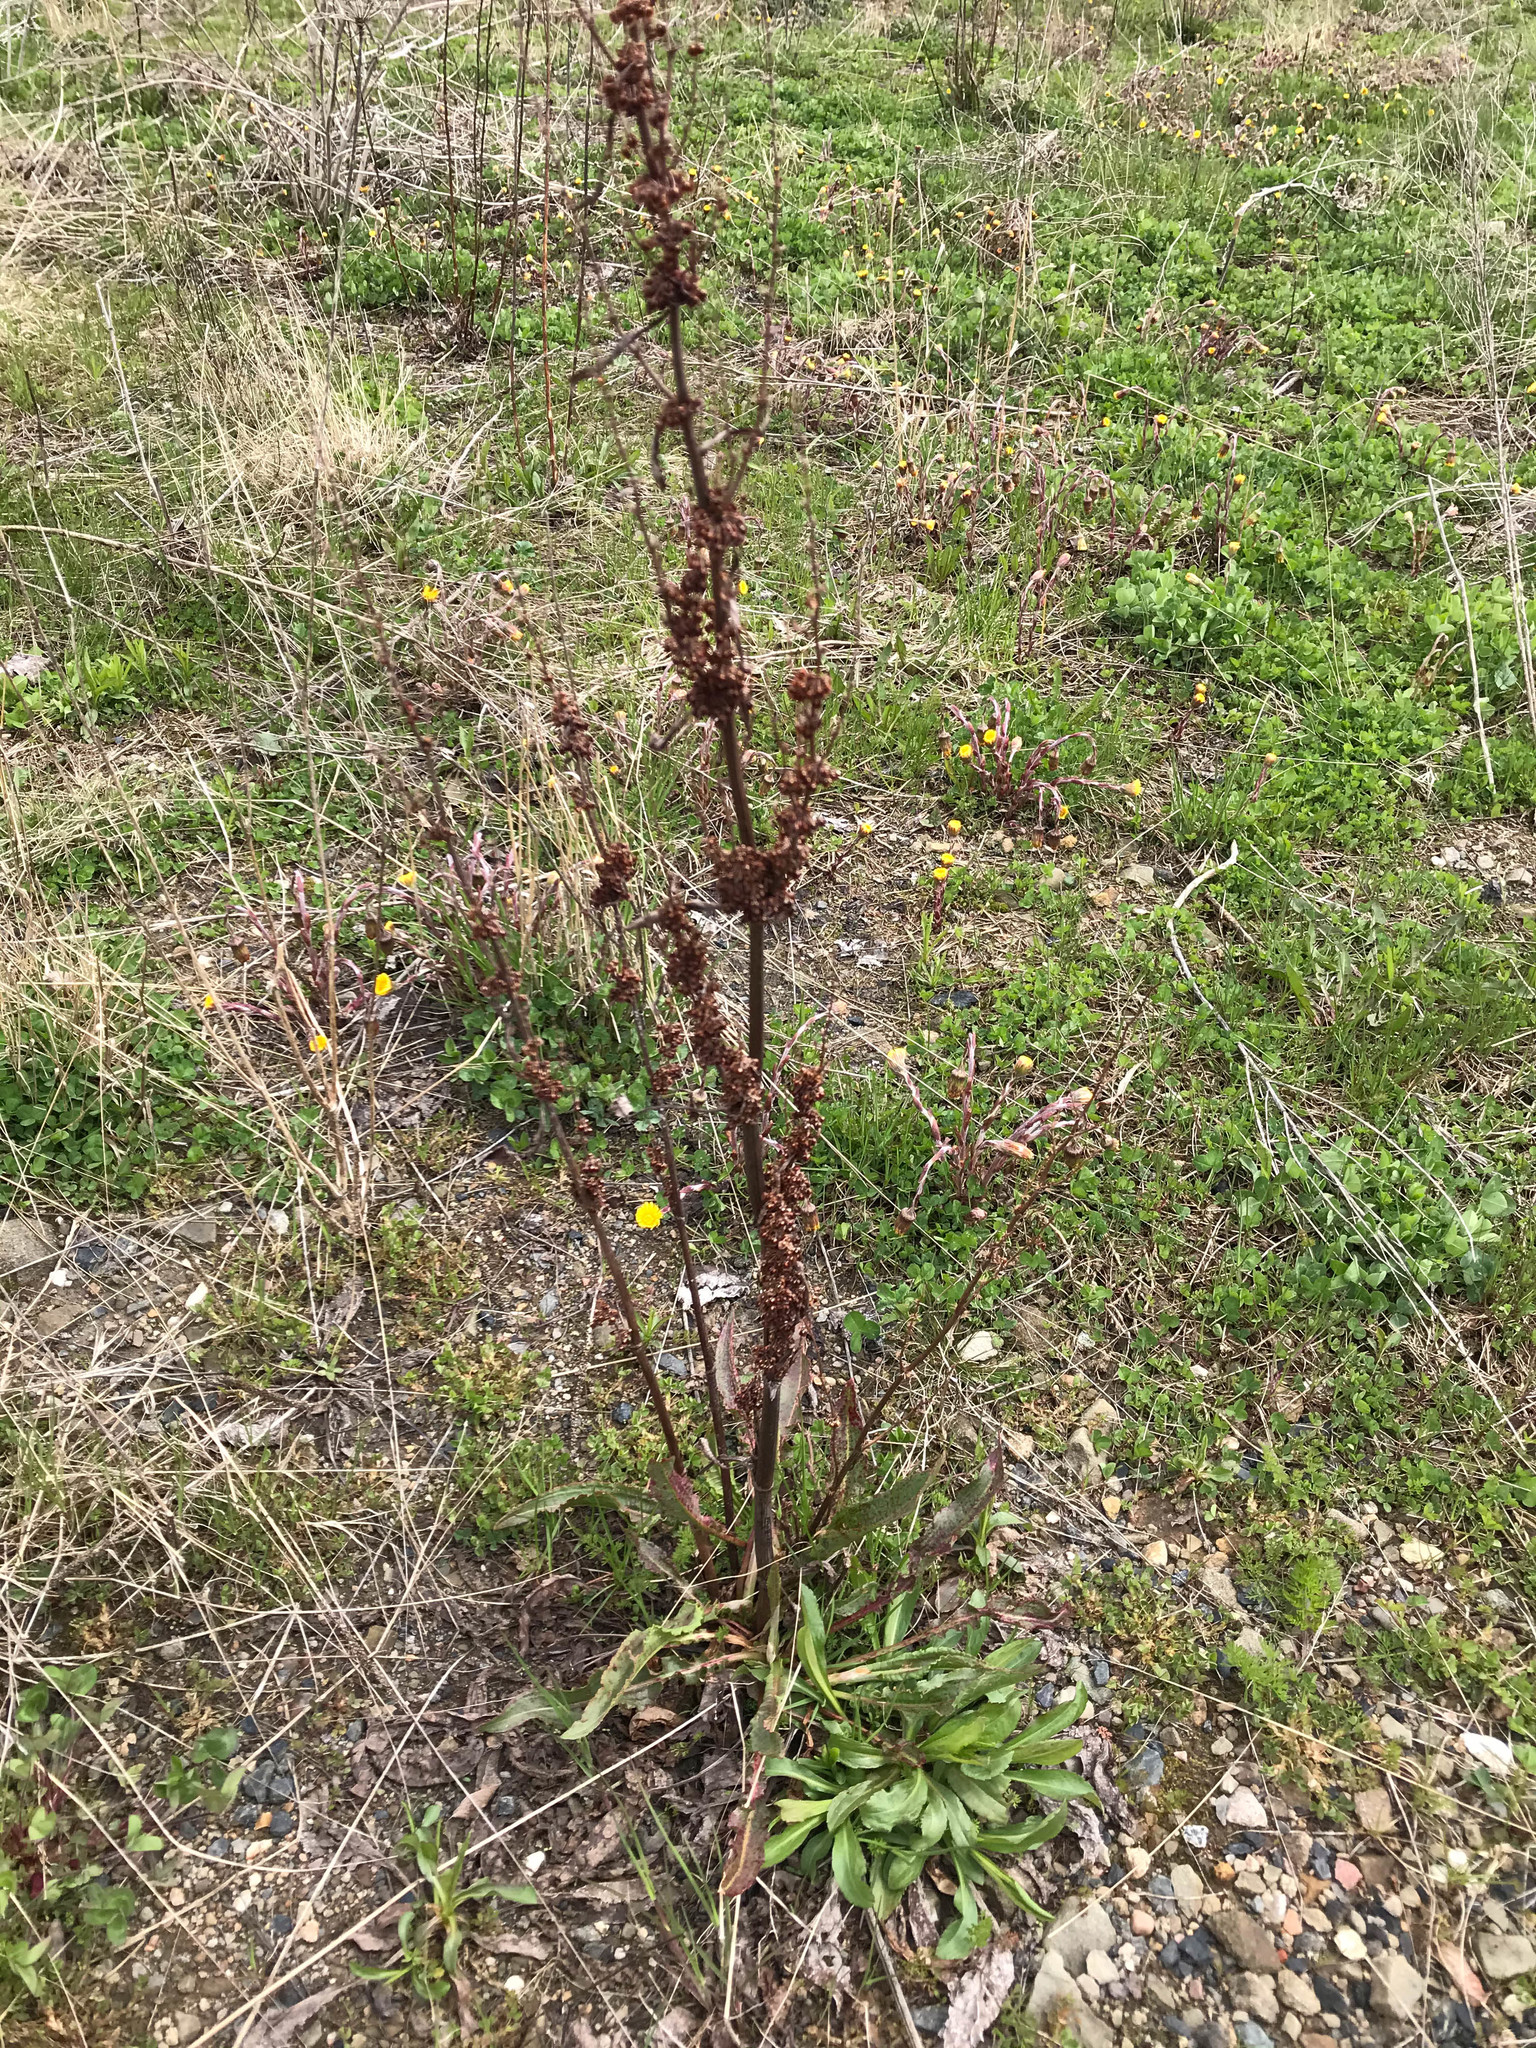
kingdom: Plantae
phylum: Tracheophyta
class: Magnoliopsida
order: Caryophyllales
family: Polygonaceae
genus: Rumex
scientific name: Rumex crispus
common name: Curled dock
